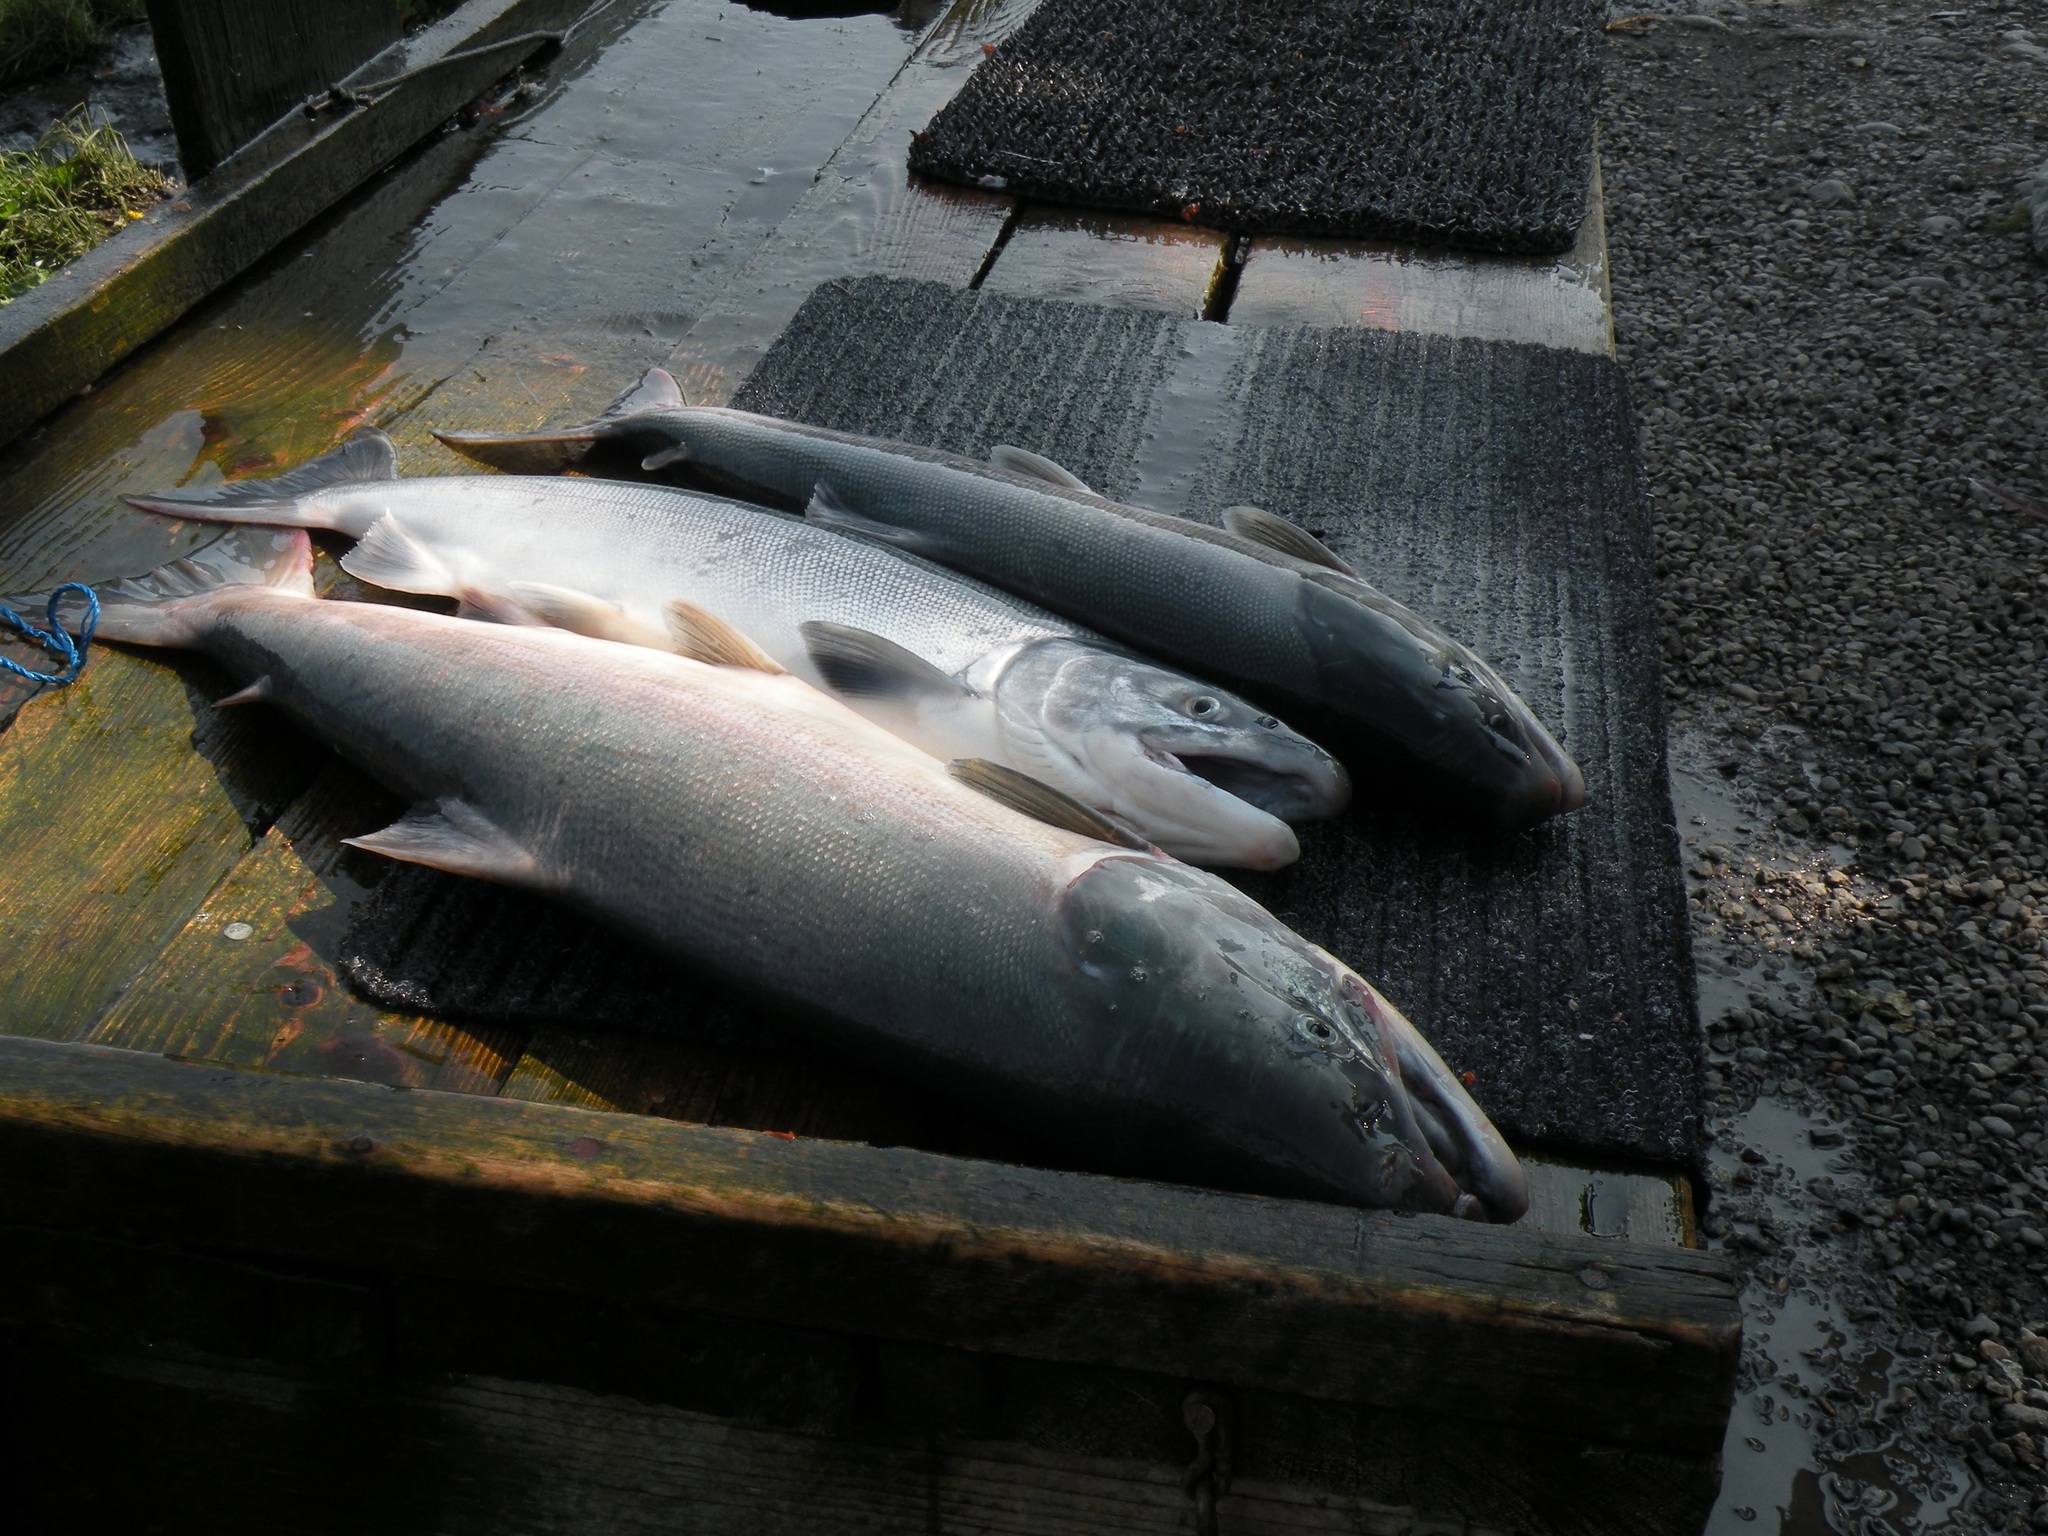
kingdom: Animalia
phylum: Chordata
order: Salmoniformes
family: Salmonidae
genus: Oncorhynchus
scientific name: Oncorhynchus nerka
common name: Sockeye salmon
